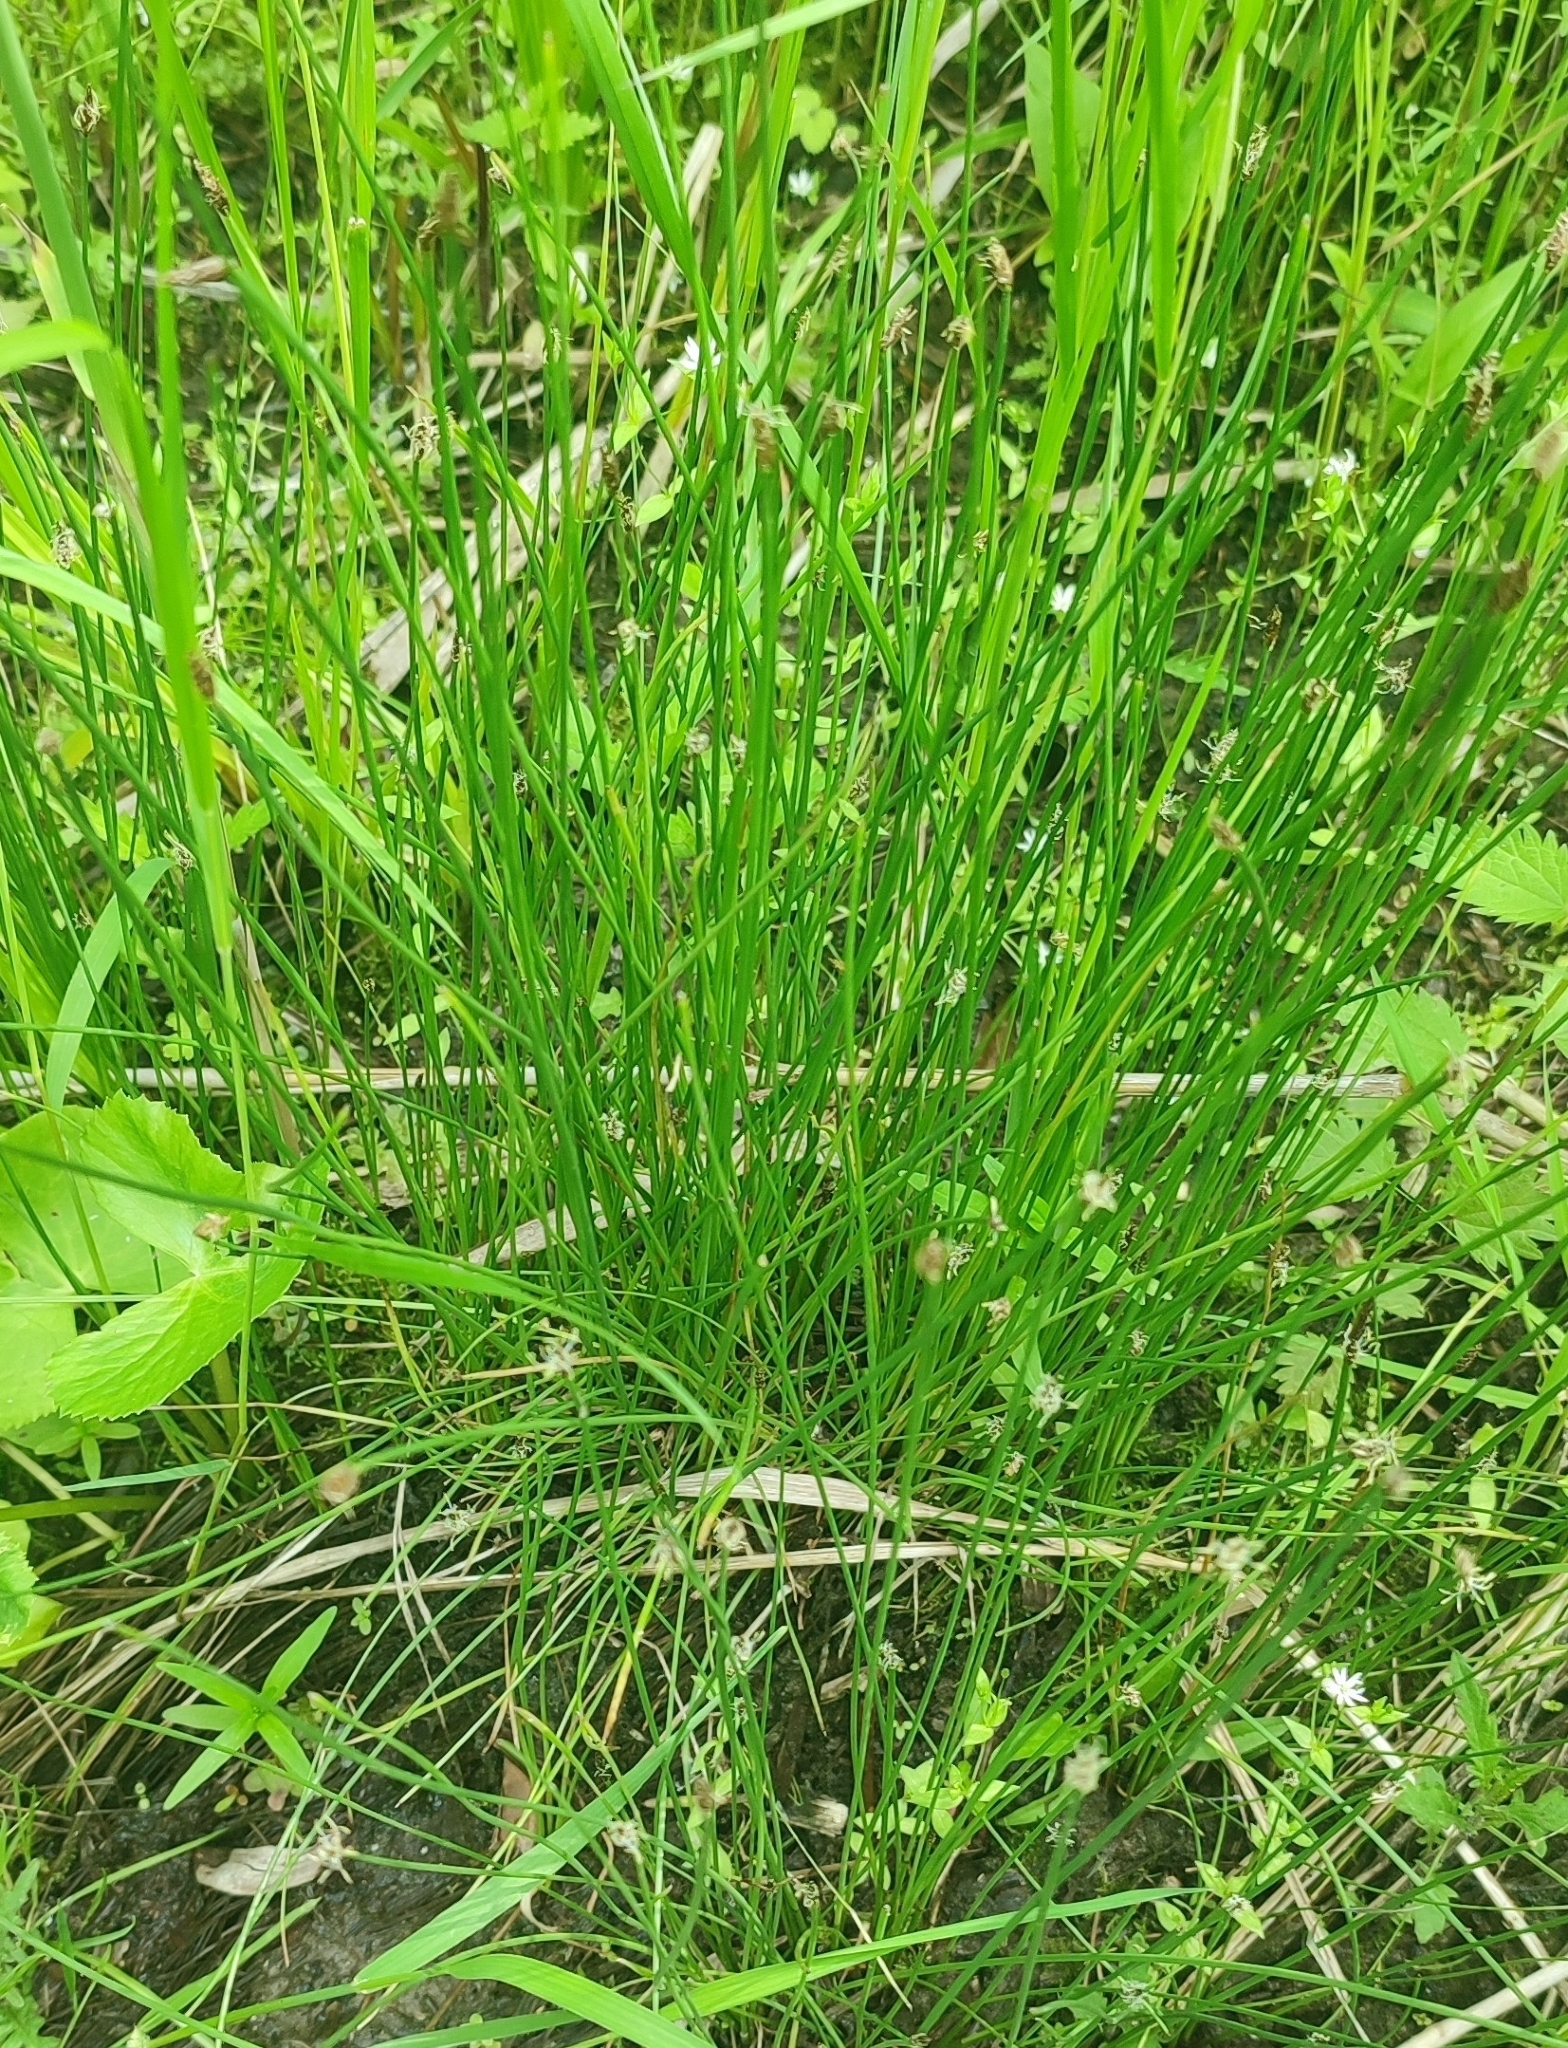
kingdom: Plantae
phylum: Tracheophyta
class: Liliopsida
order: Poales
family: Cyperaceae
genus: Eleocharis
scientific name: Eleocharis palustris
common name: Common spike-rush
